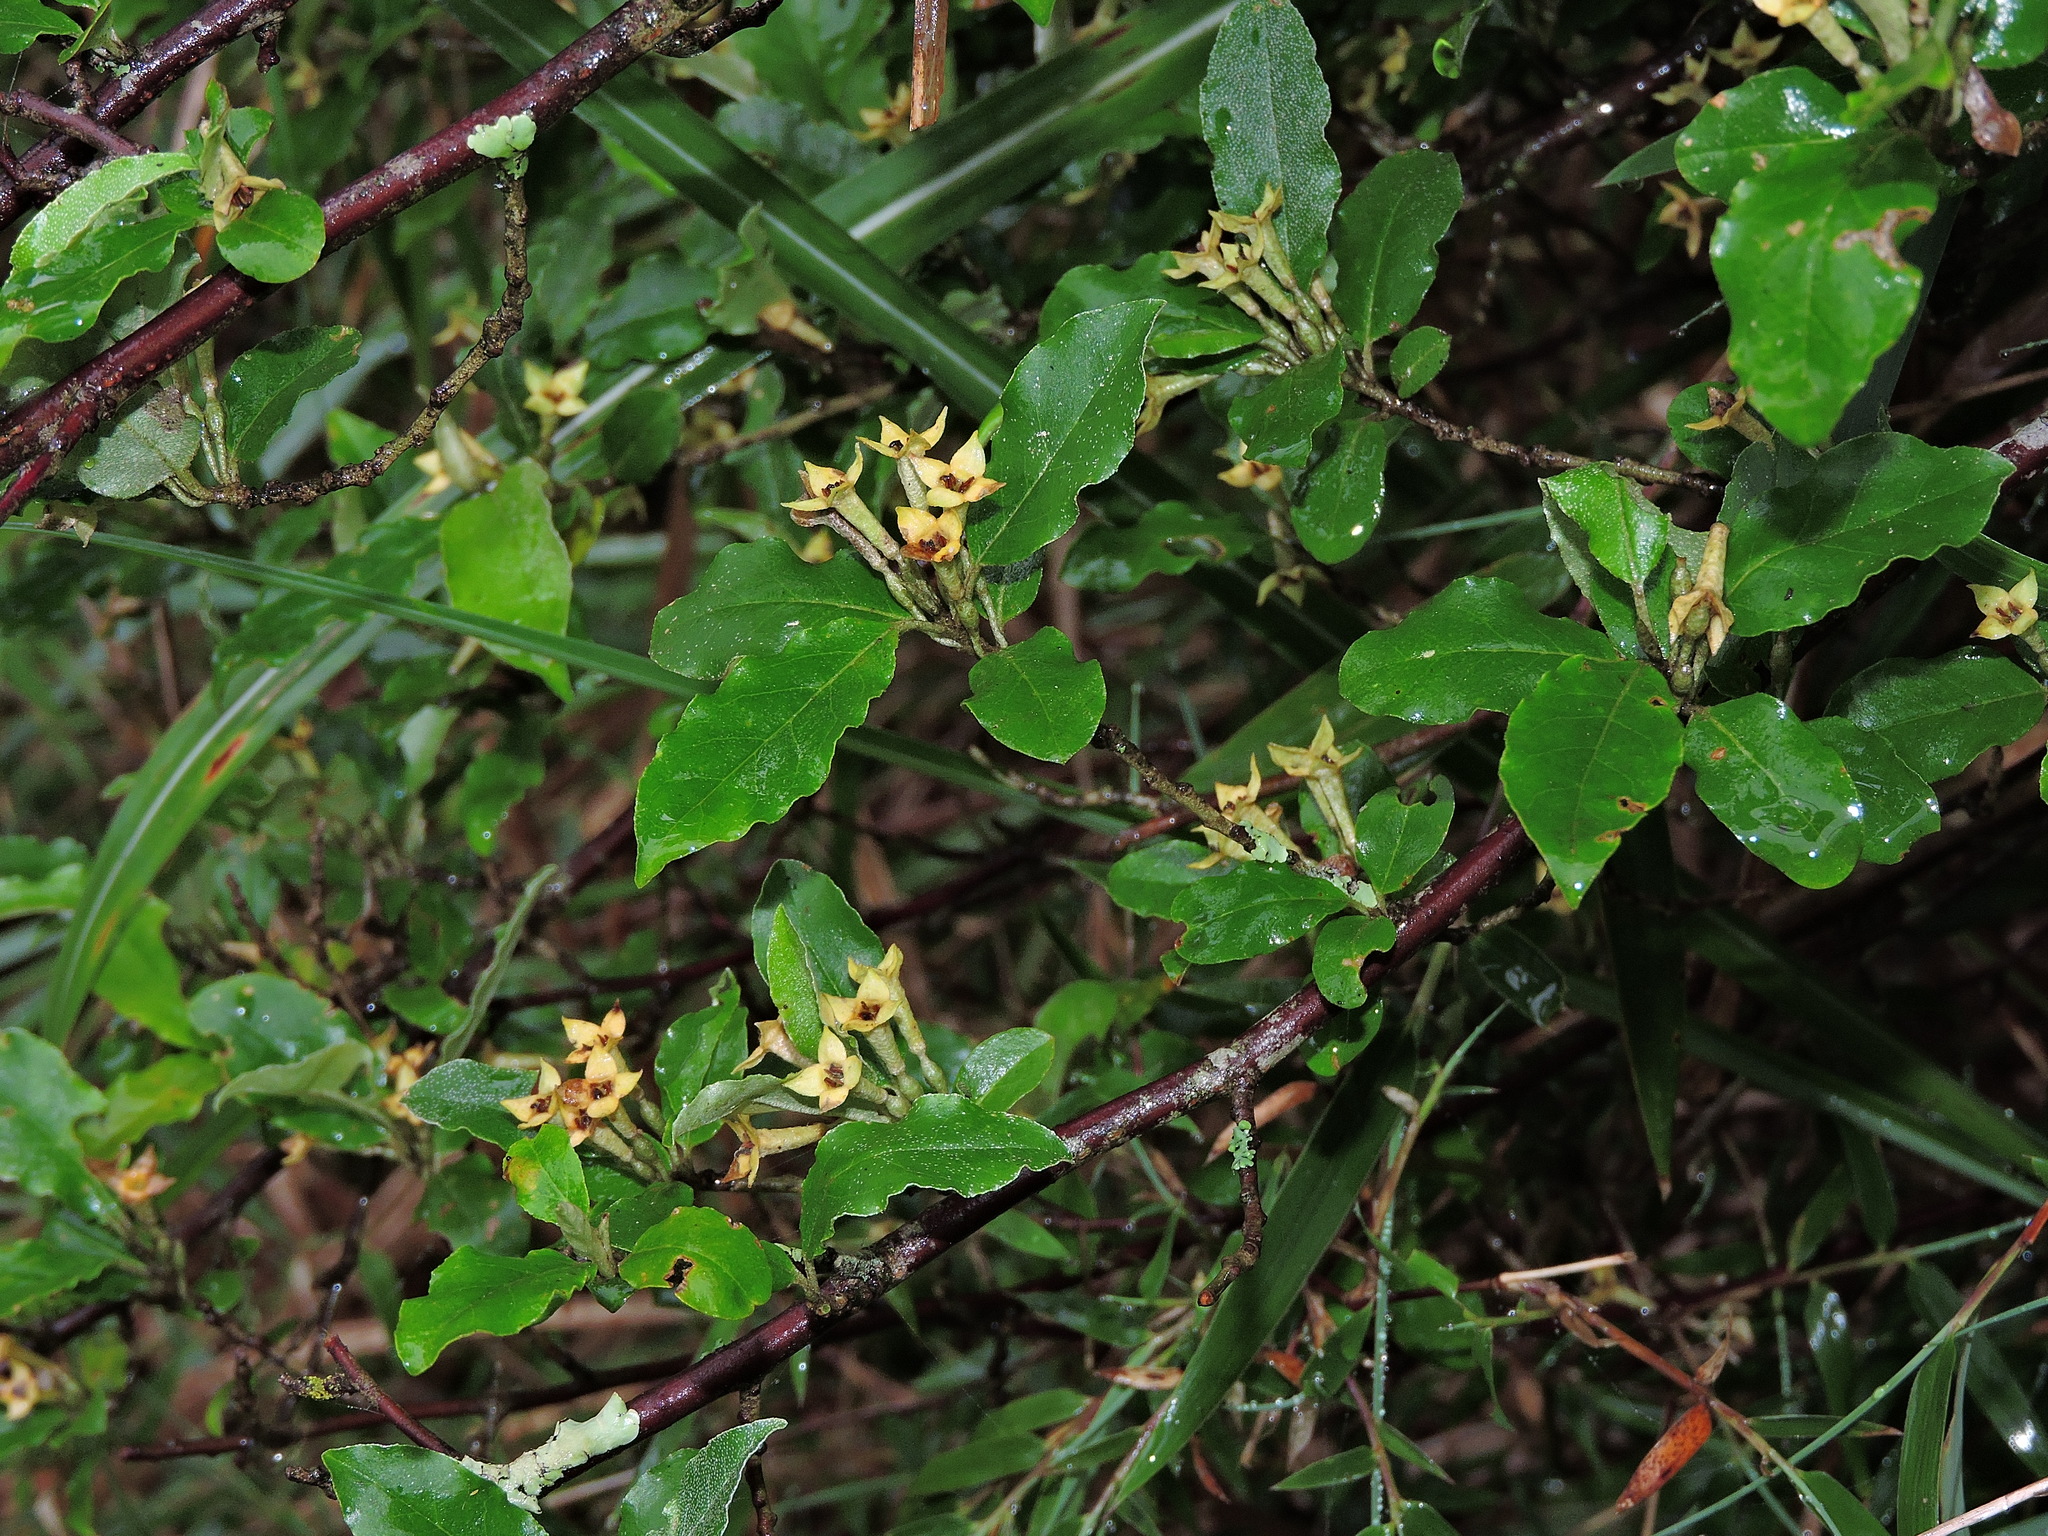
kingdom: Plantae
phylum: Tracheophyta
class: Magnoliopsida
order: Rosales
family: Elaeagnaceae
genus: Elaeagnus
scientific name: Elaeagnus umbellata
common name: Autumn olive
